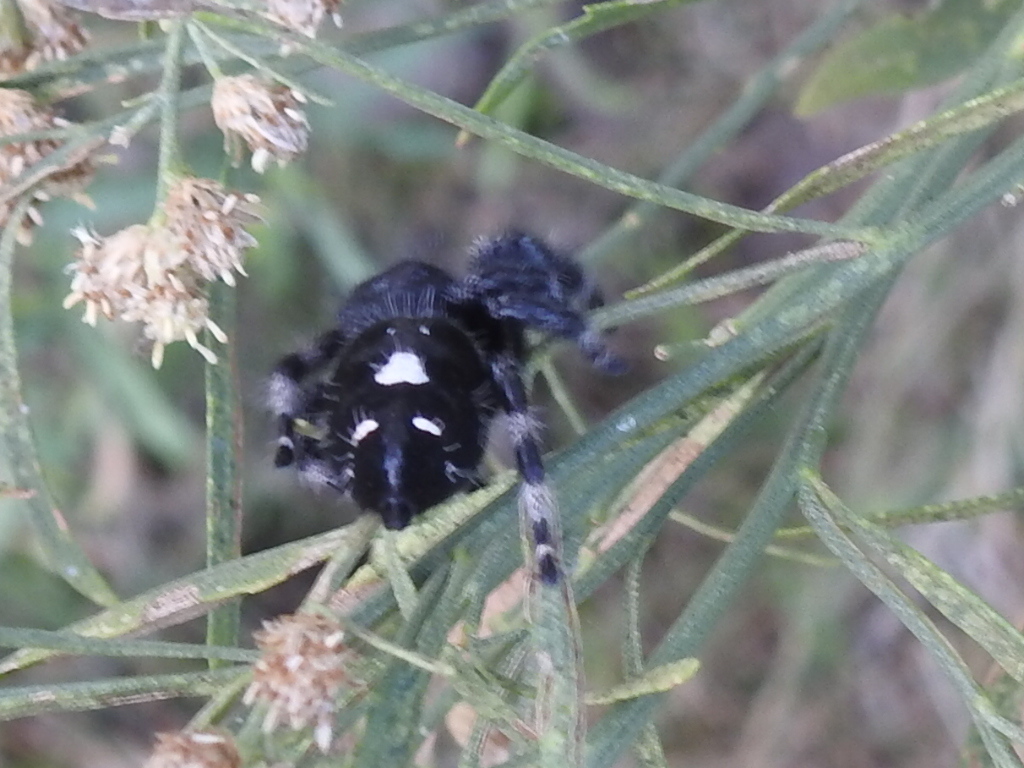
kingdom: Animalia
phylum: Arthropoda
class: Arachnida
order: Araneae
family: Salticidae
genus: Phidippus
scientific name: Phidippus audax
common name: Bold jumper
